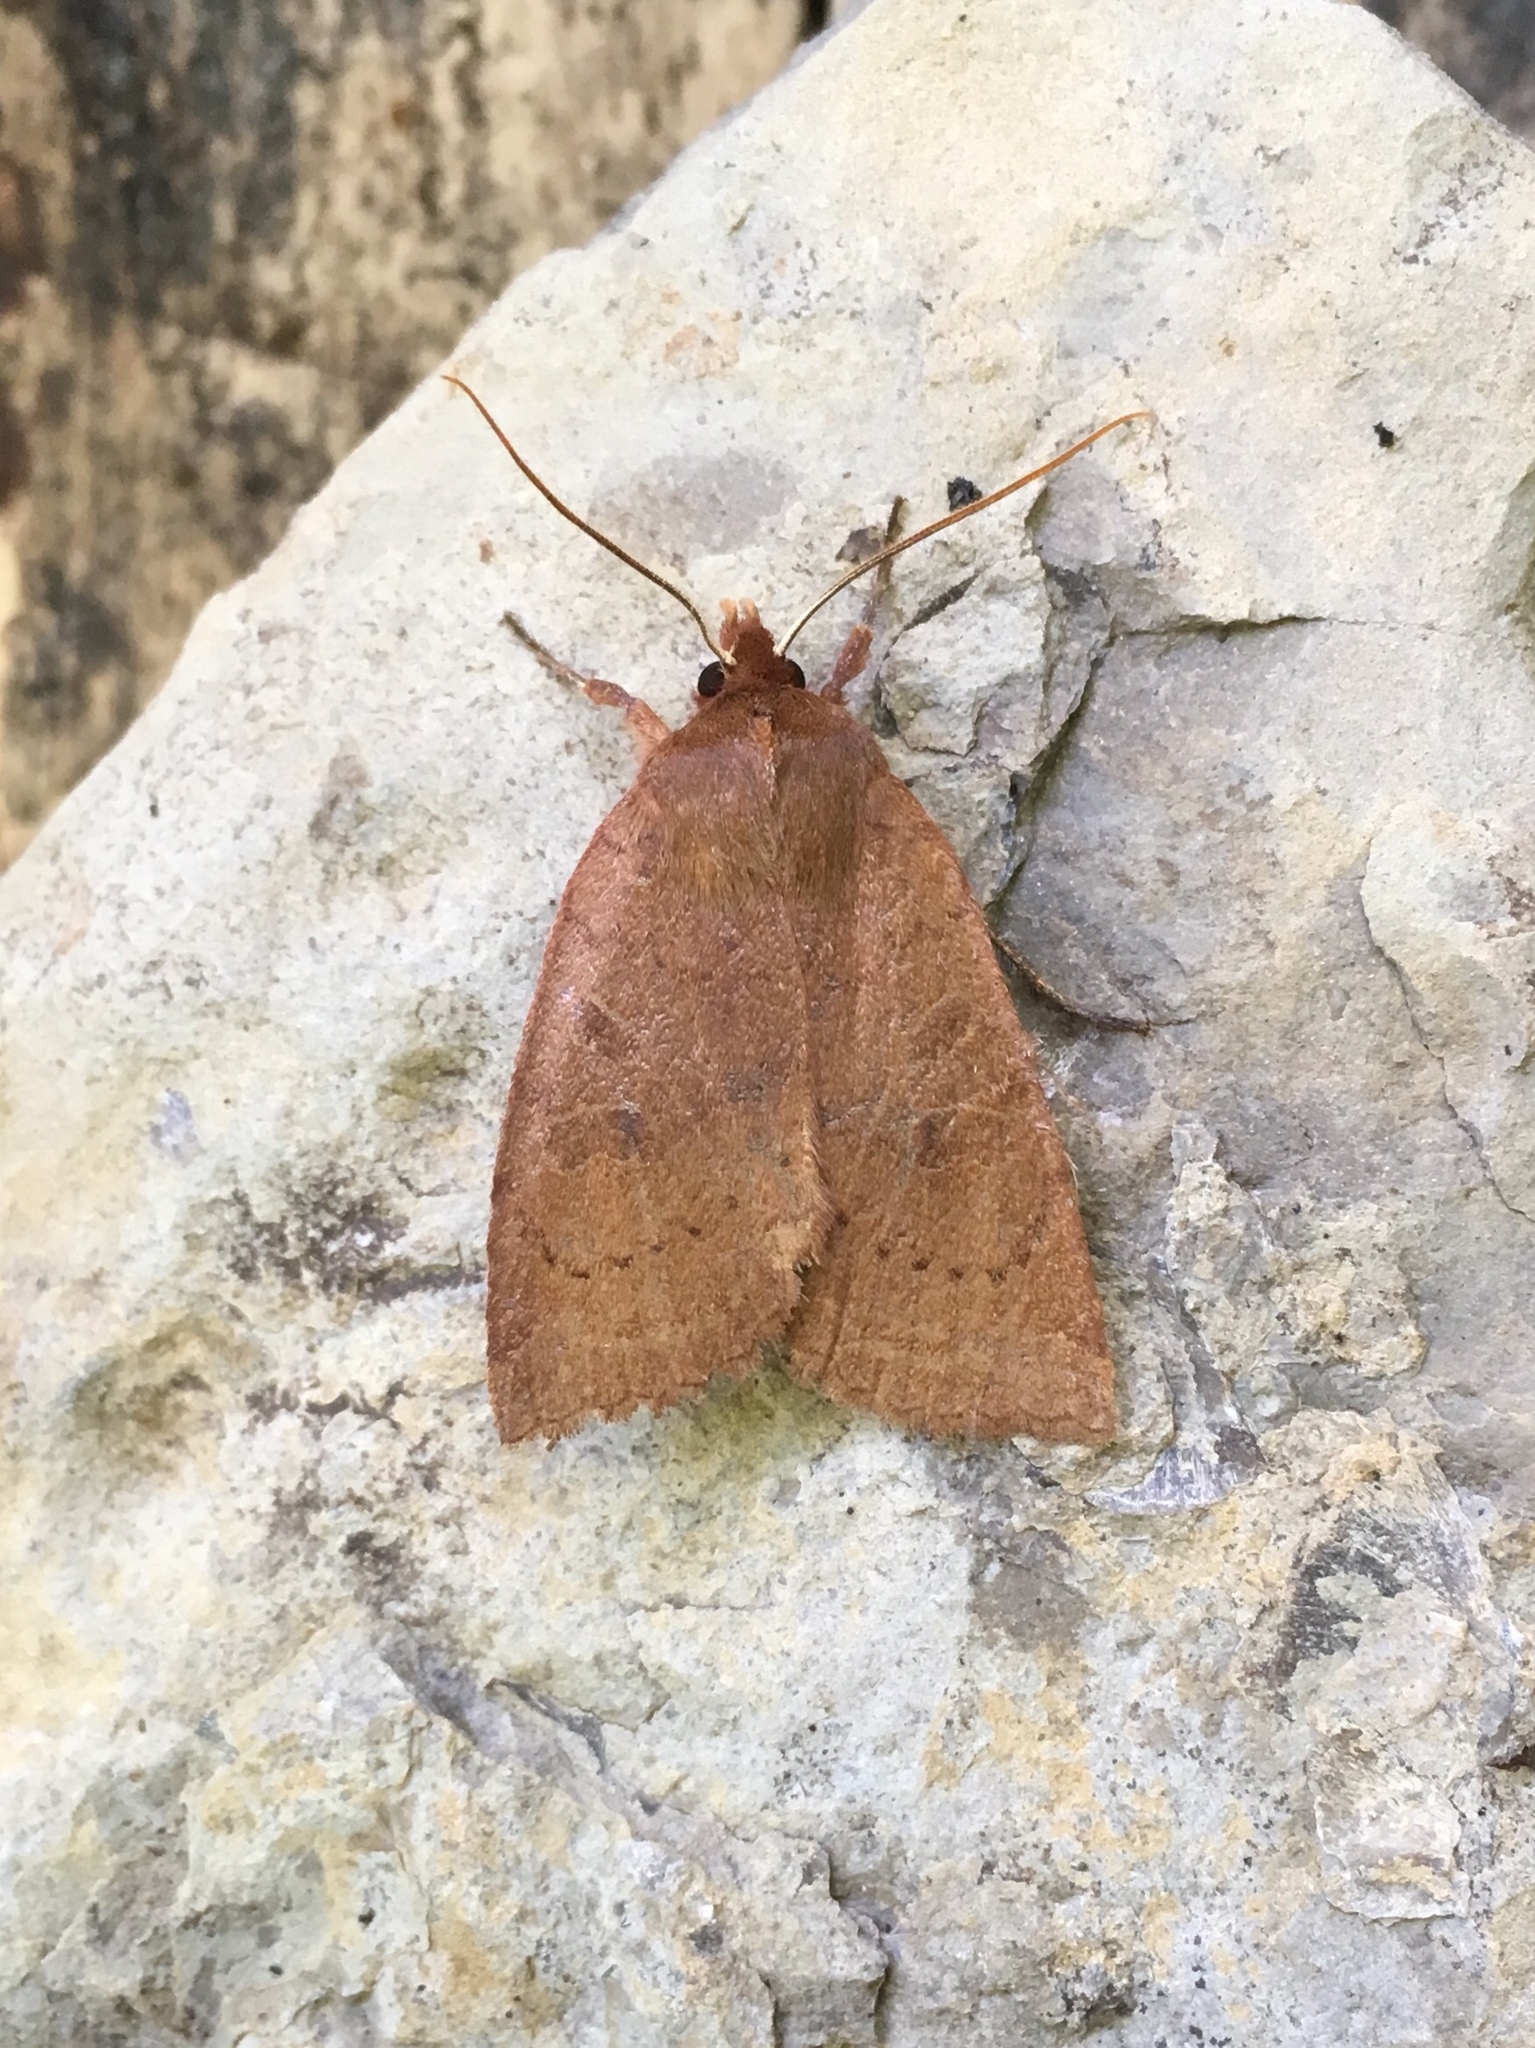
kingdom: Animalia
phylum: Arthropoda
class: Insecta
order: Lepidoptera
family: Noctuidae
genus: Epiglaea
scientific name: Epiglaea decliva
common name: Sloping sallow
